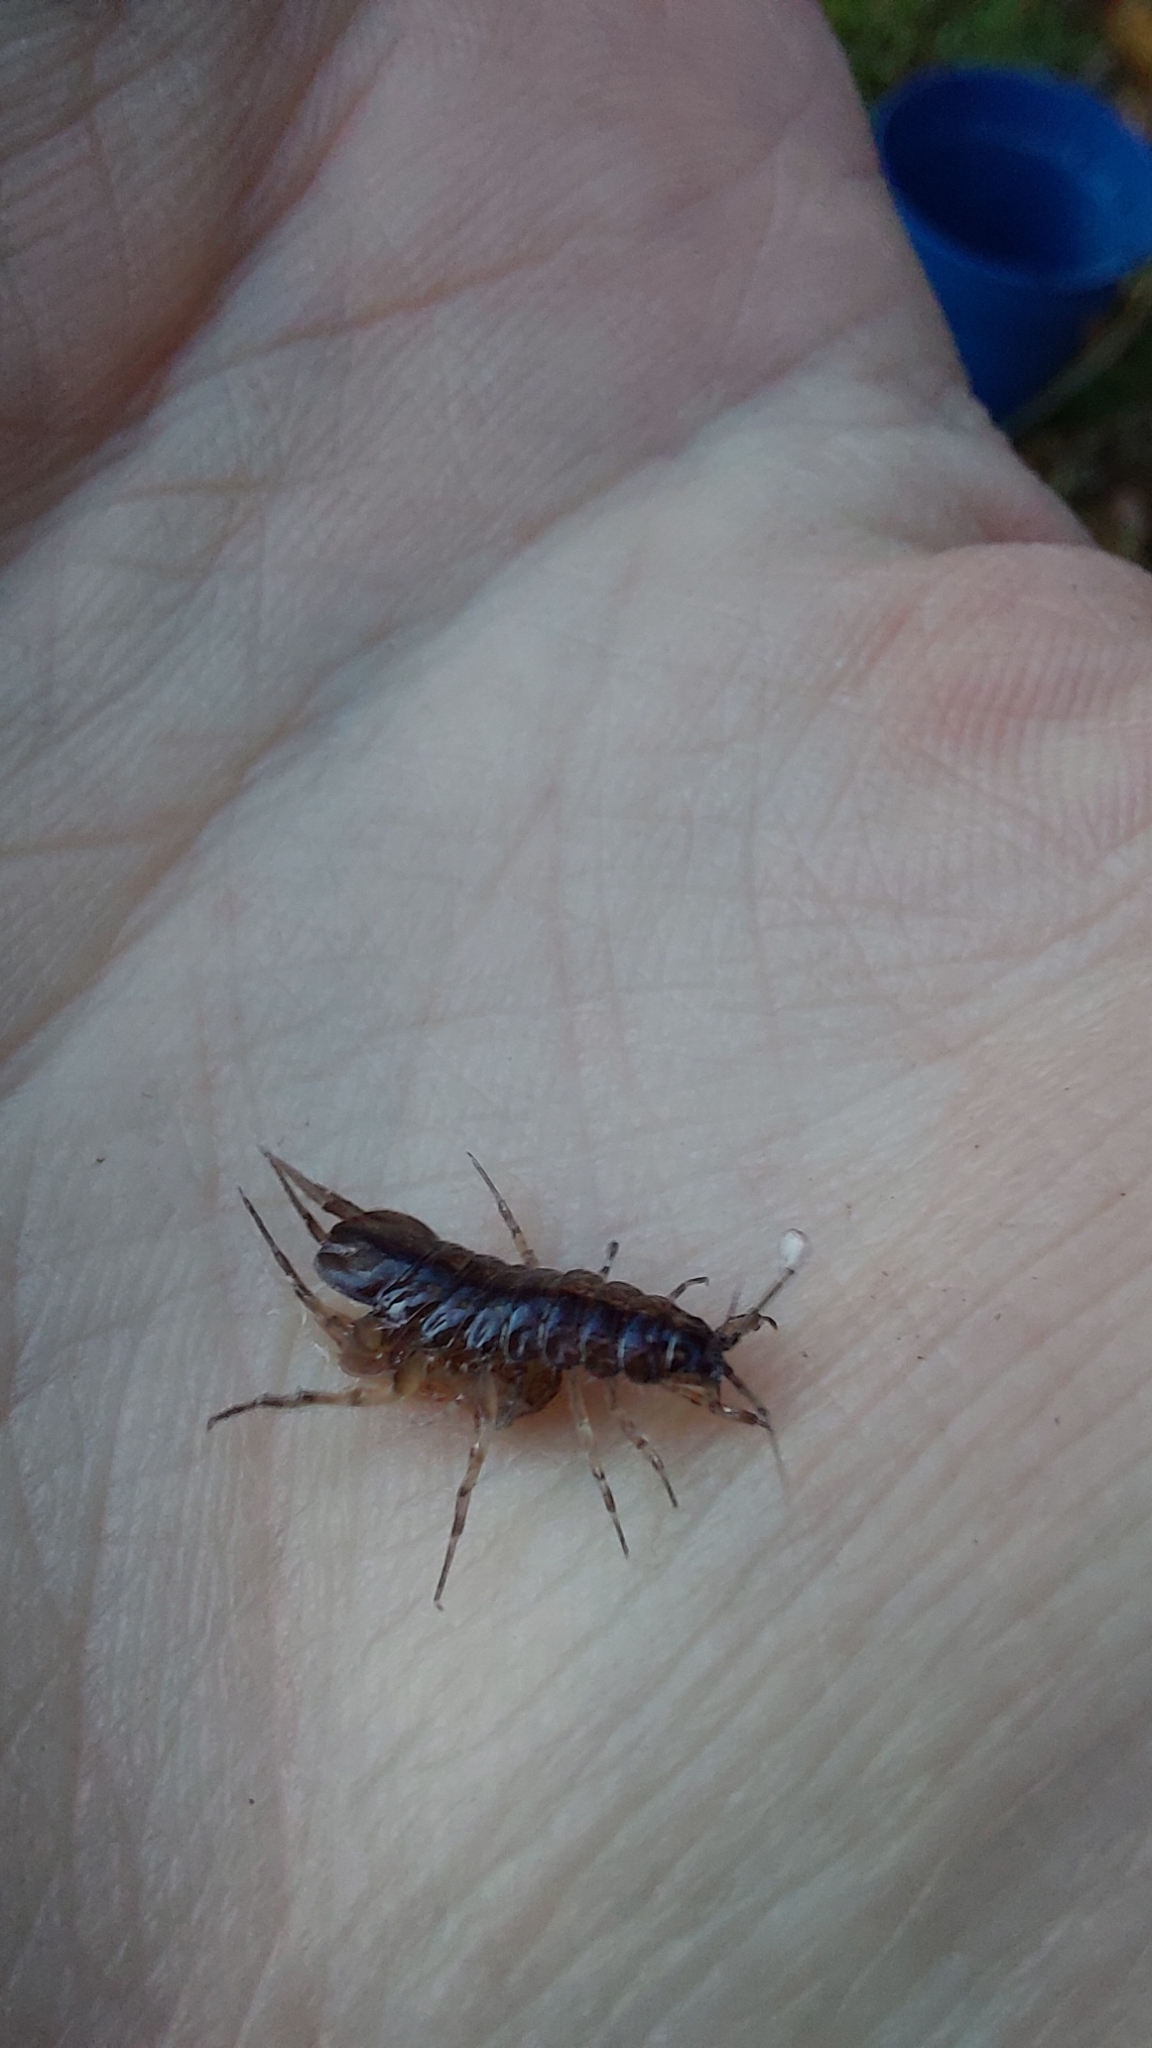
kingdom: Animalia
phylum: Arthropoda
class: Malacostraca
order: Isopoda
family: Asellidae
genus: Asellus
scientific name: Asellus aquaticus
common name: Water hog lice/slaters
